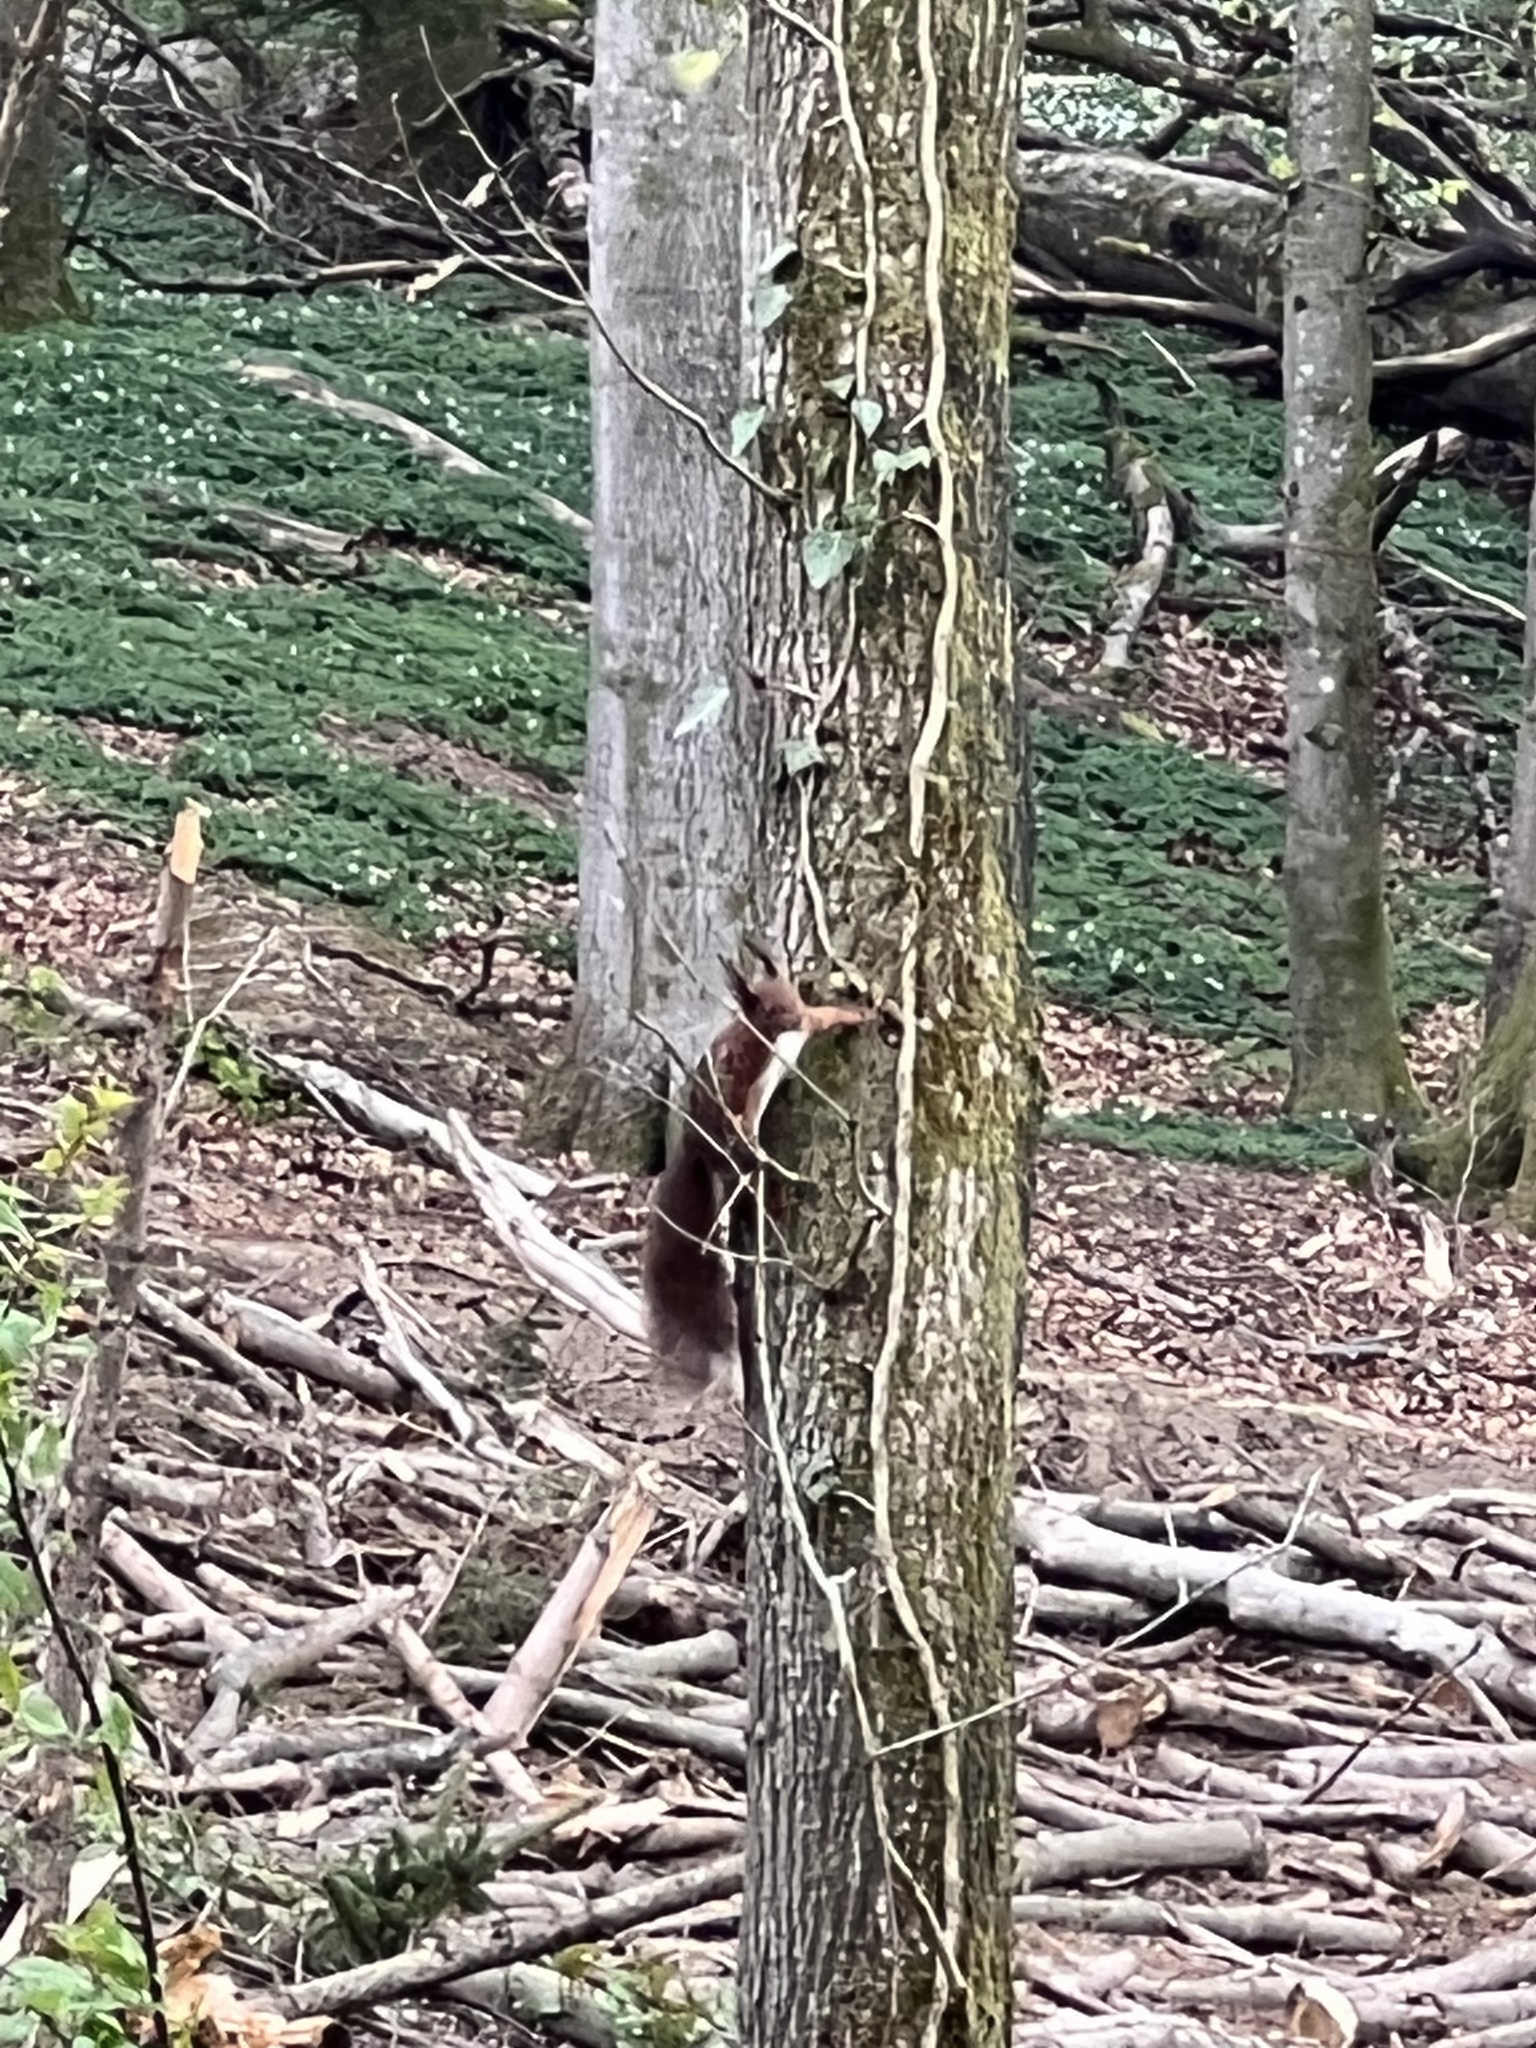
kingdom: Animalia
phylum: Chordata
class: Mammalia
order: Rodentia
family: Sciuridae
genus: Sciurus
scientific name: Sciurus vulgaris
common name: Eurasian red squirrel
